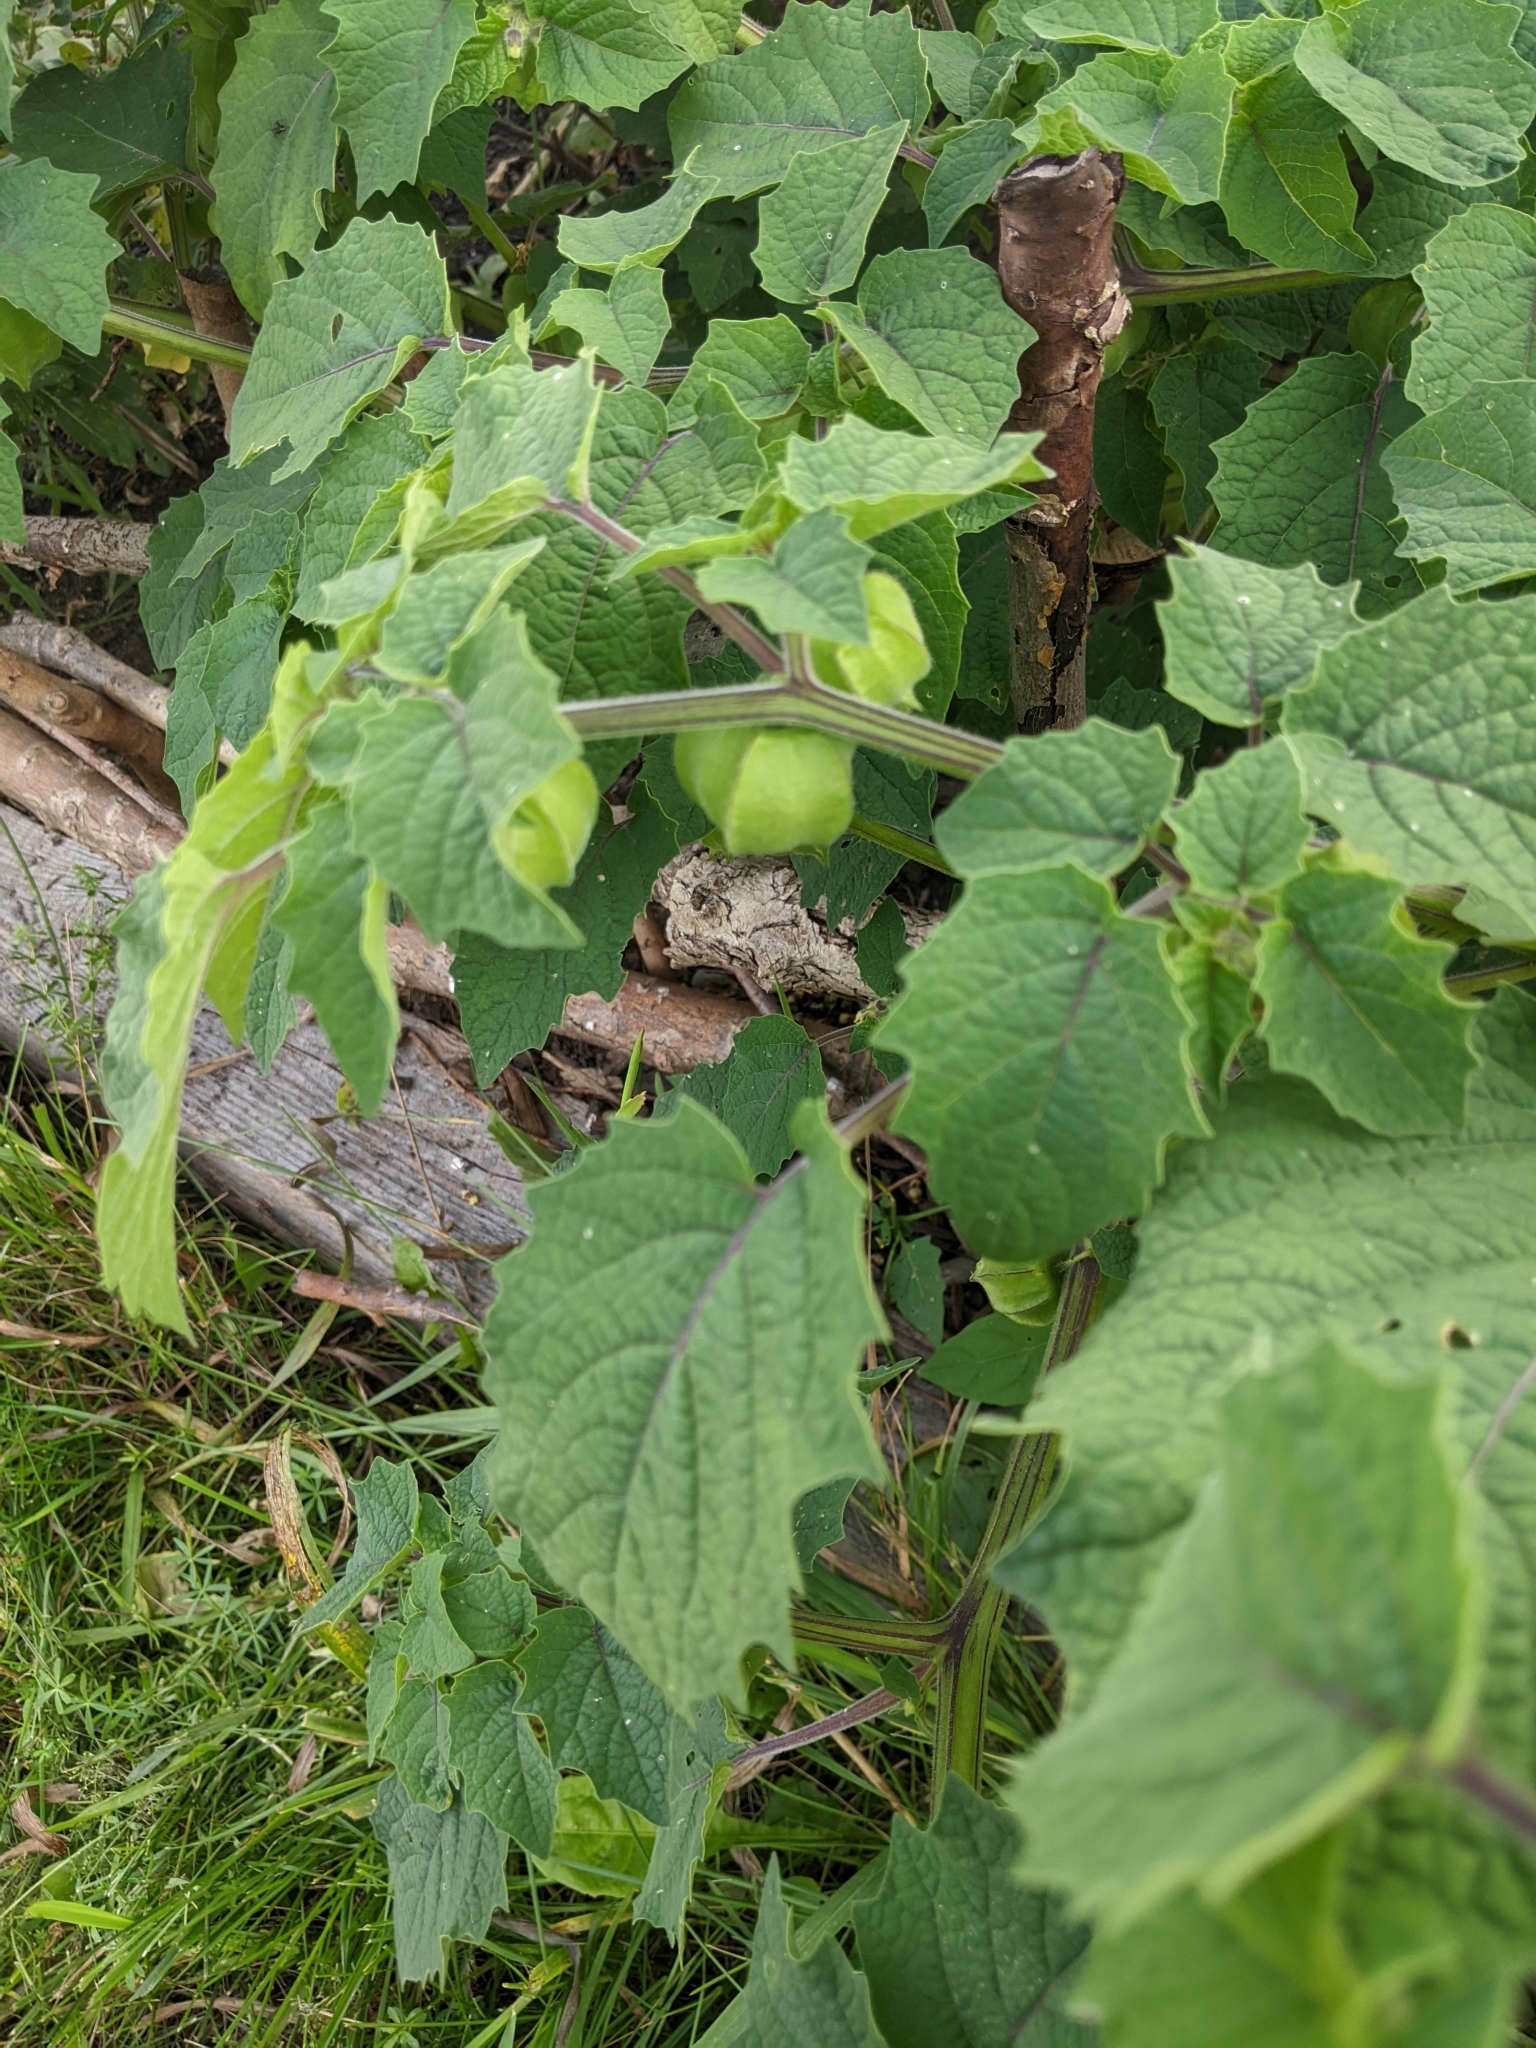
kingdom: Plantae
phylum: Tracheophyta
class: Magnoliopsida
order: Solanales
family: Solanaceae
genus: Physalis
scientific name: Physalis grisea
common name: Dwarf cape-gooseberry
